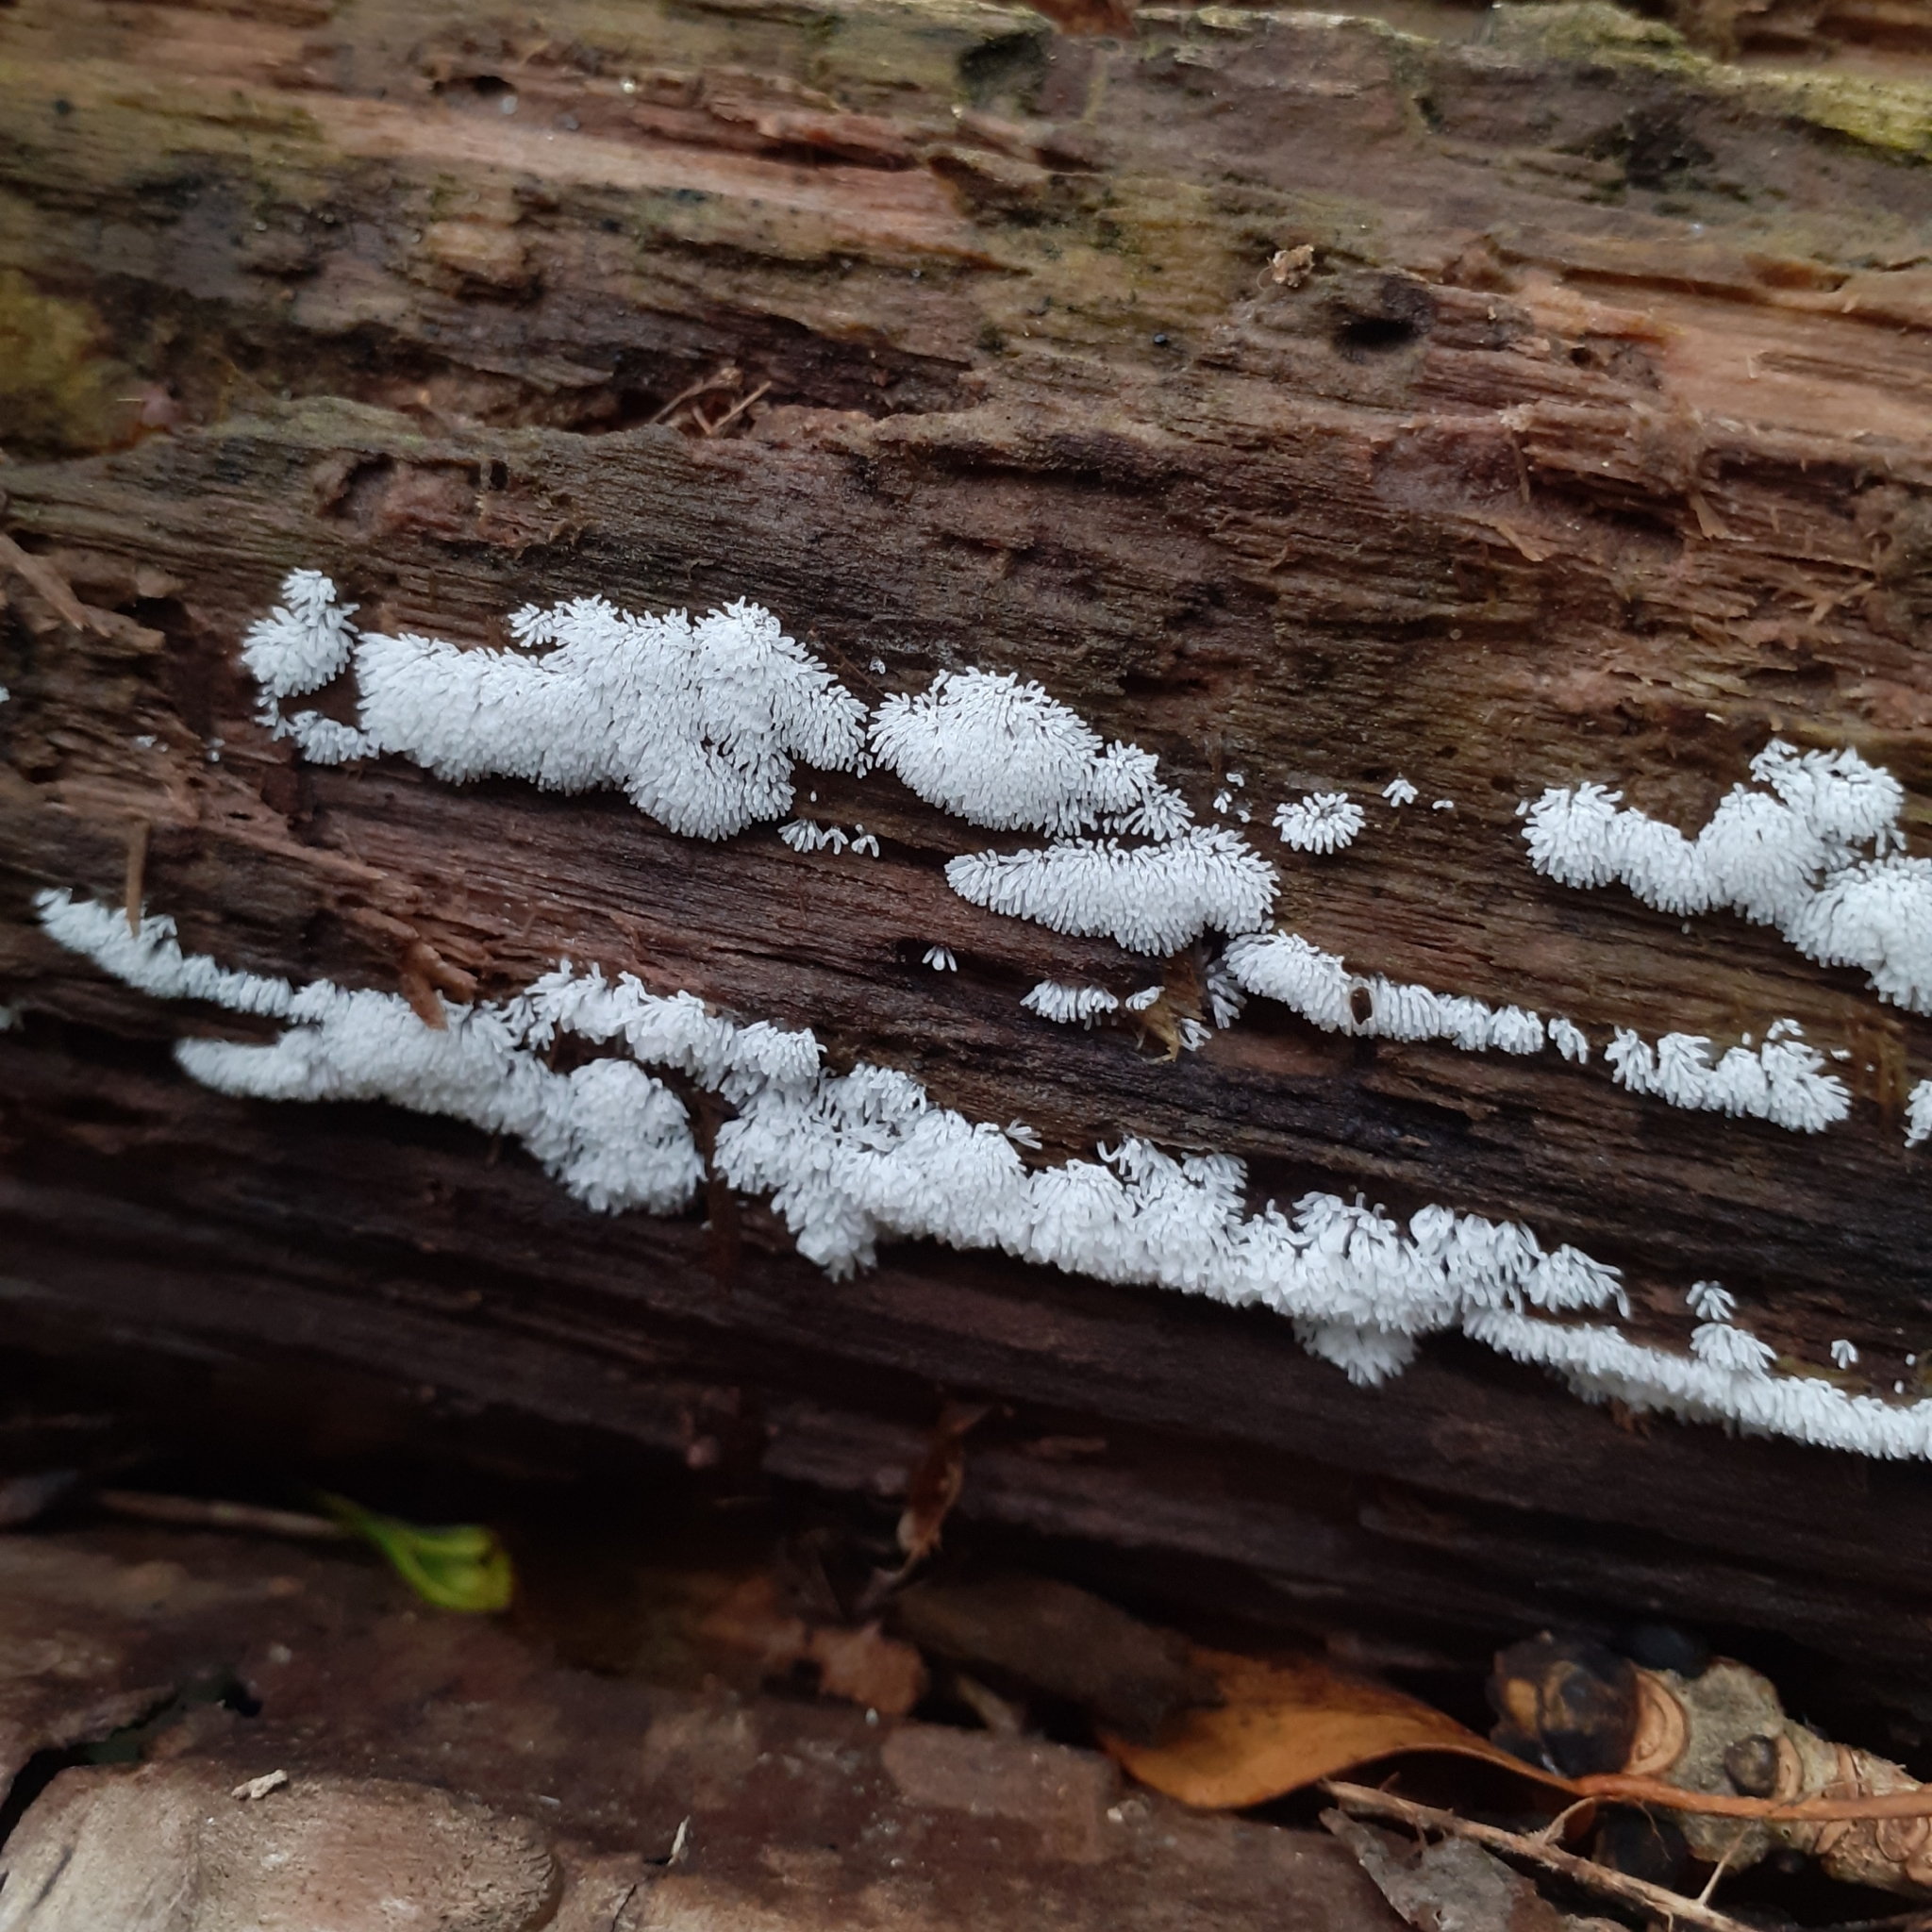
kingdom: Protozoa
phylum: Mycetozoa
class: Protosteliomycetes
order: Ceratiomyxales
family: Ceratiomyxaceae
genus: Ceratiomyxa
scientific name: Ceratiomyxa fruticulosa
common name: Honeycomb coral slime mold
